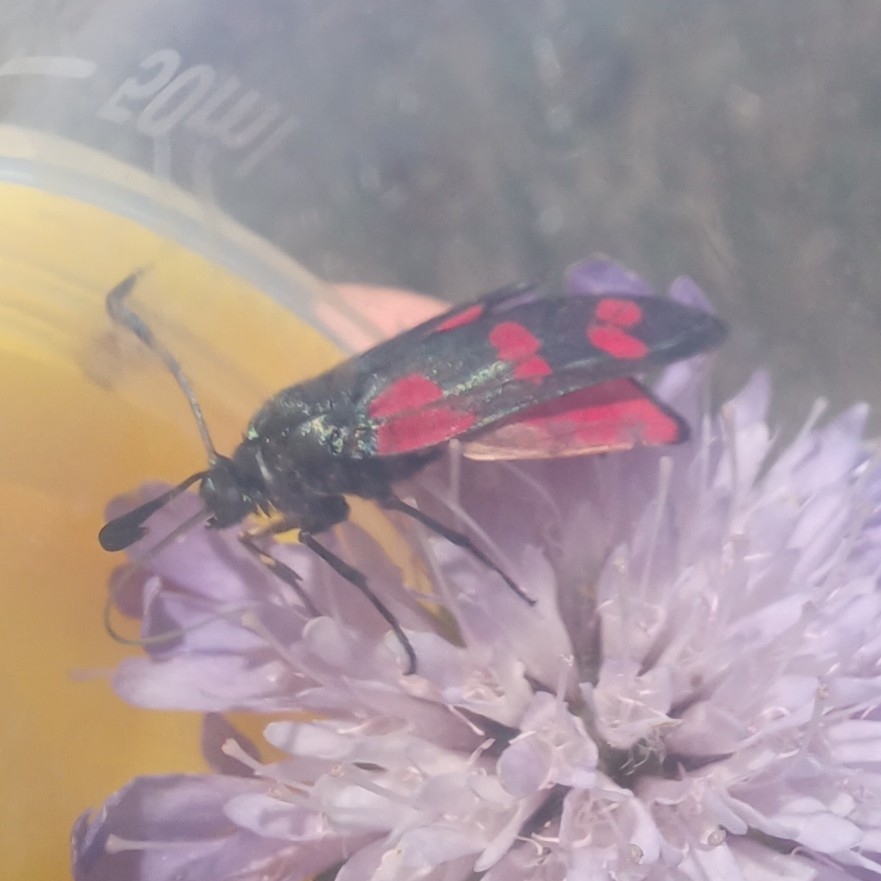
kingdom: Animalia
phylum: Arthropoda
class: Insecta
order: Lepidoptera
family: Zygaenidae
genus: Zygaena
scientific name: Zygaena filipendulae
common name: Six-spot burnet
